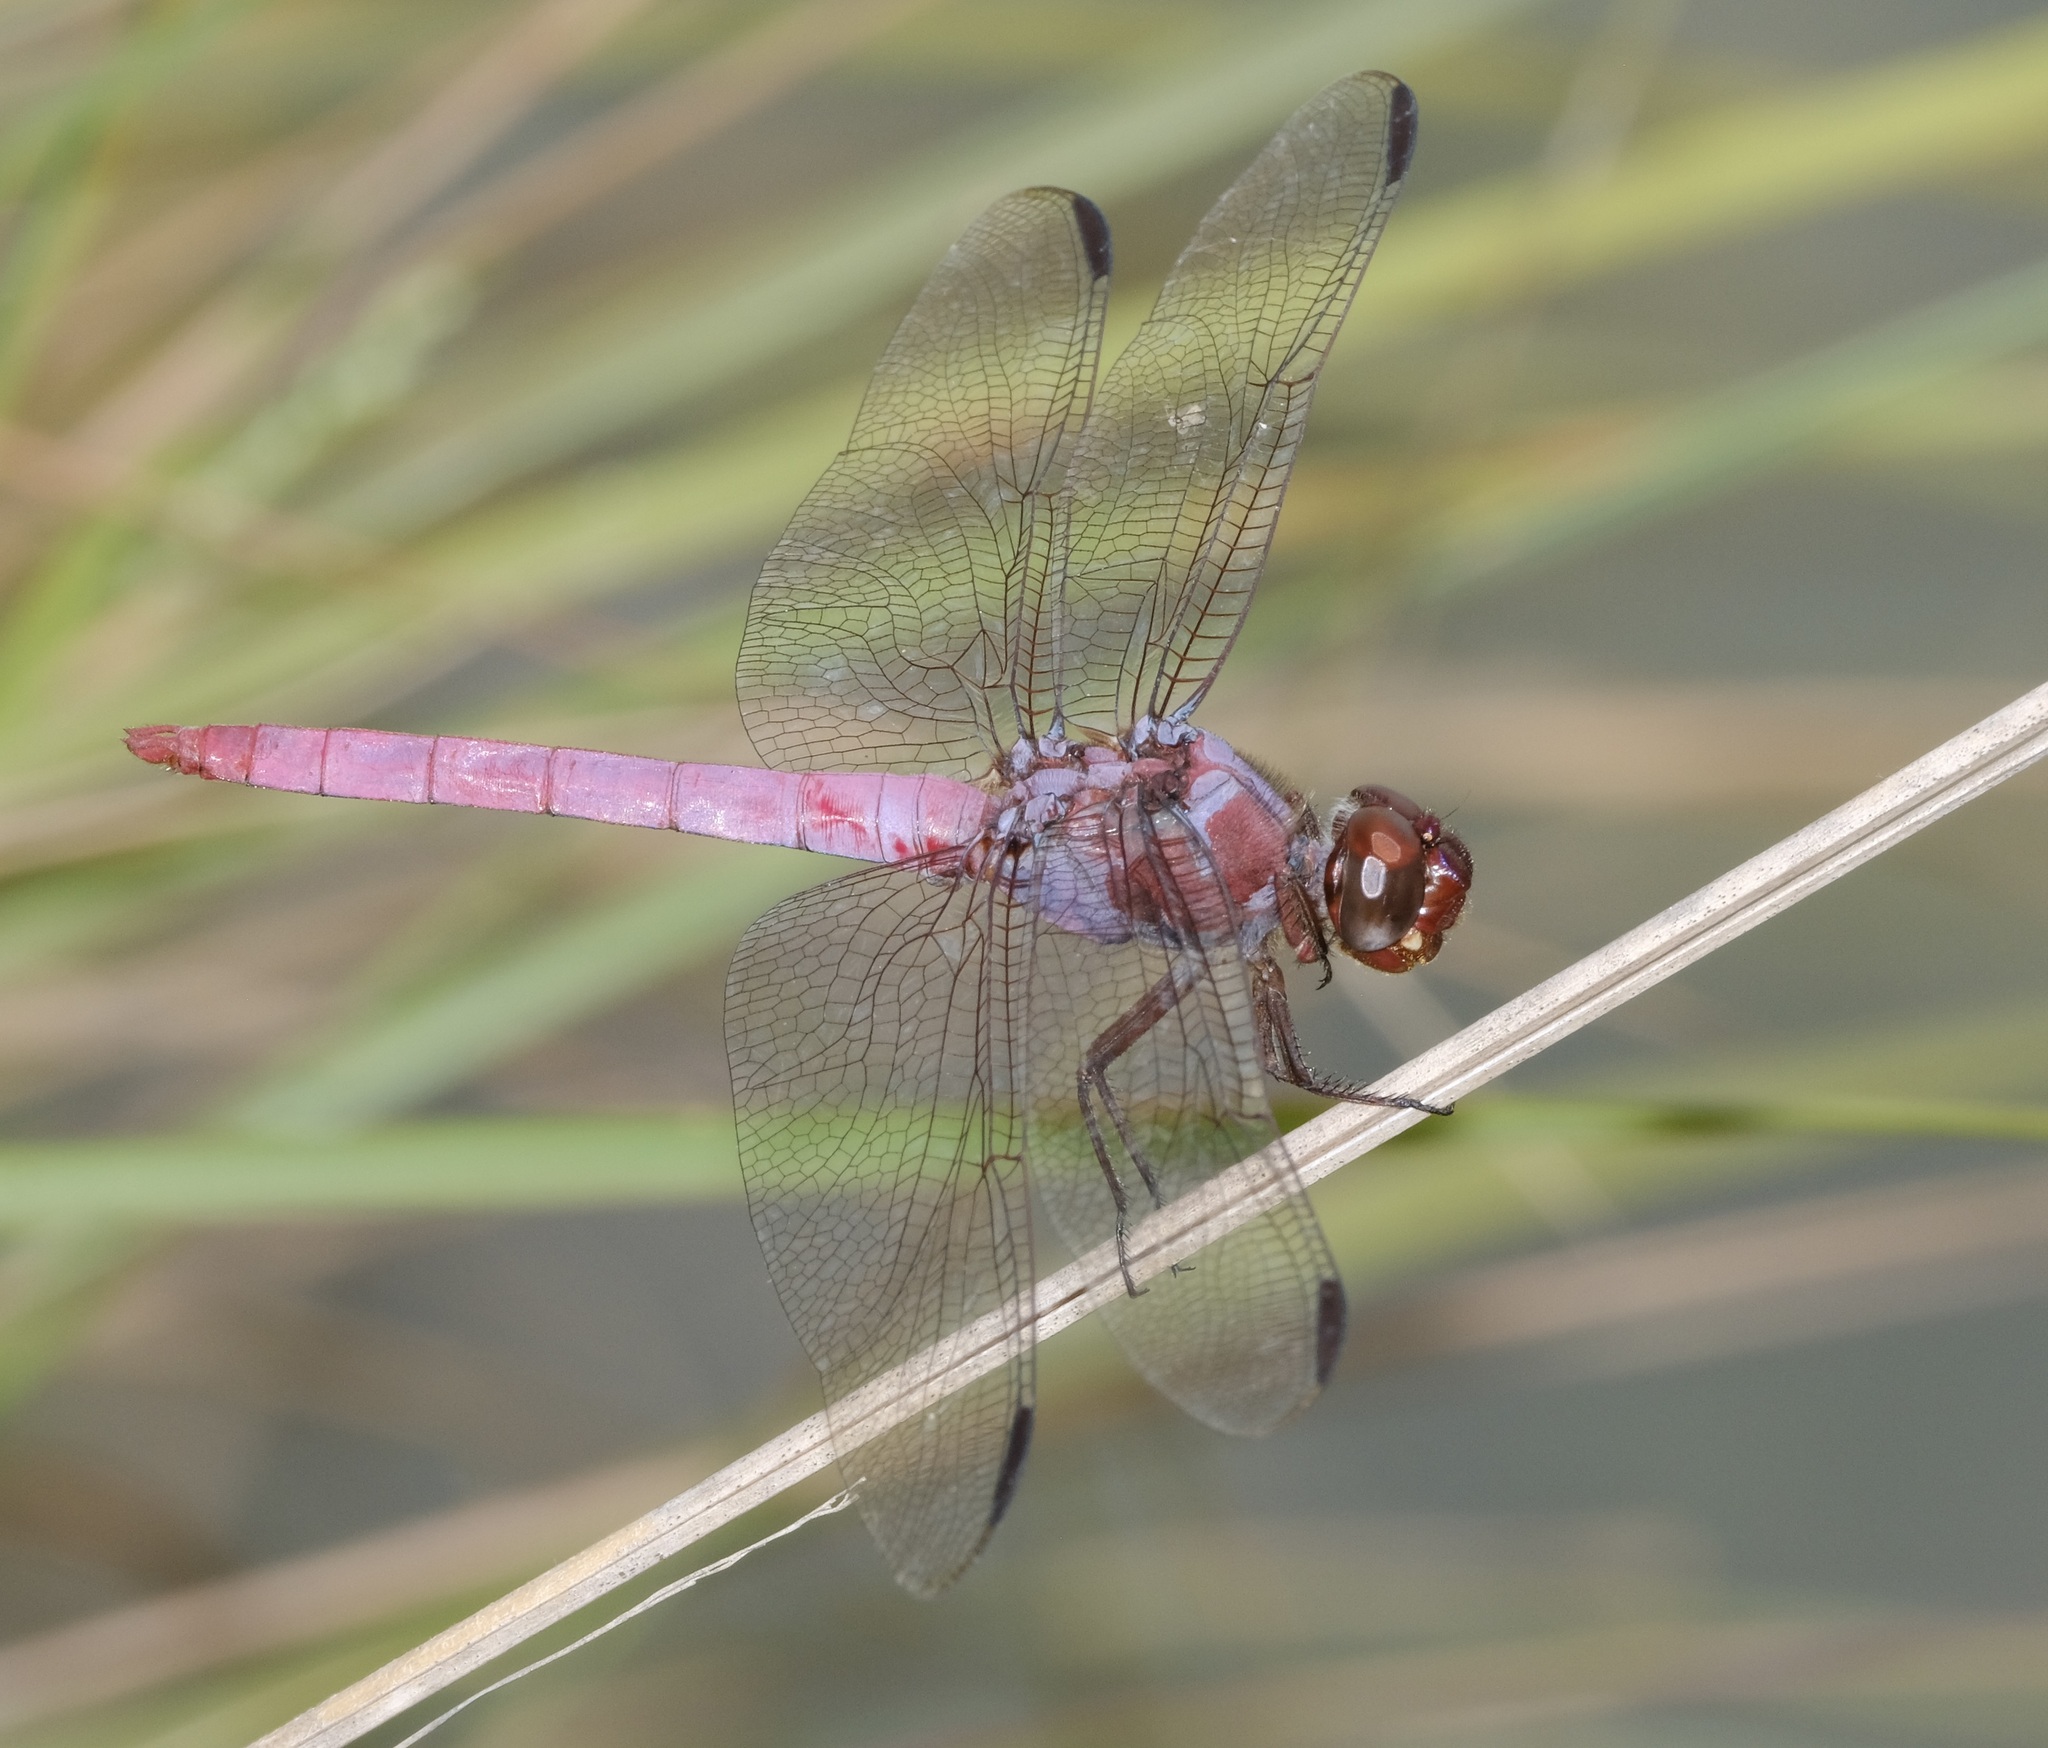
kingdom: Animalia
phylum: Arthropoda
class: Insecta
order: Odonata
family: Libellulidae
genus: Orthemis
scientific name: Orthemis ferruginea
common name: Roseate skimmer
